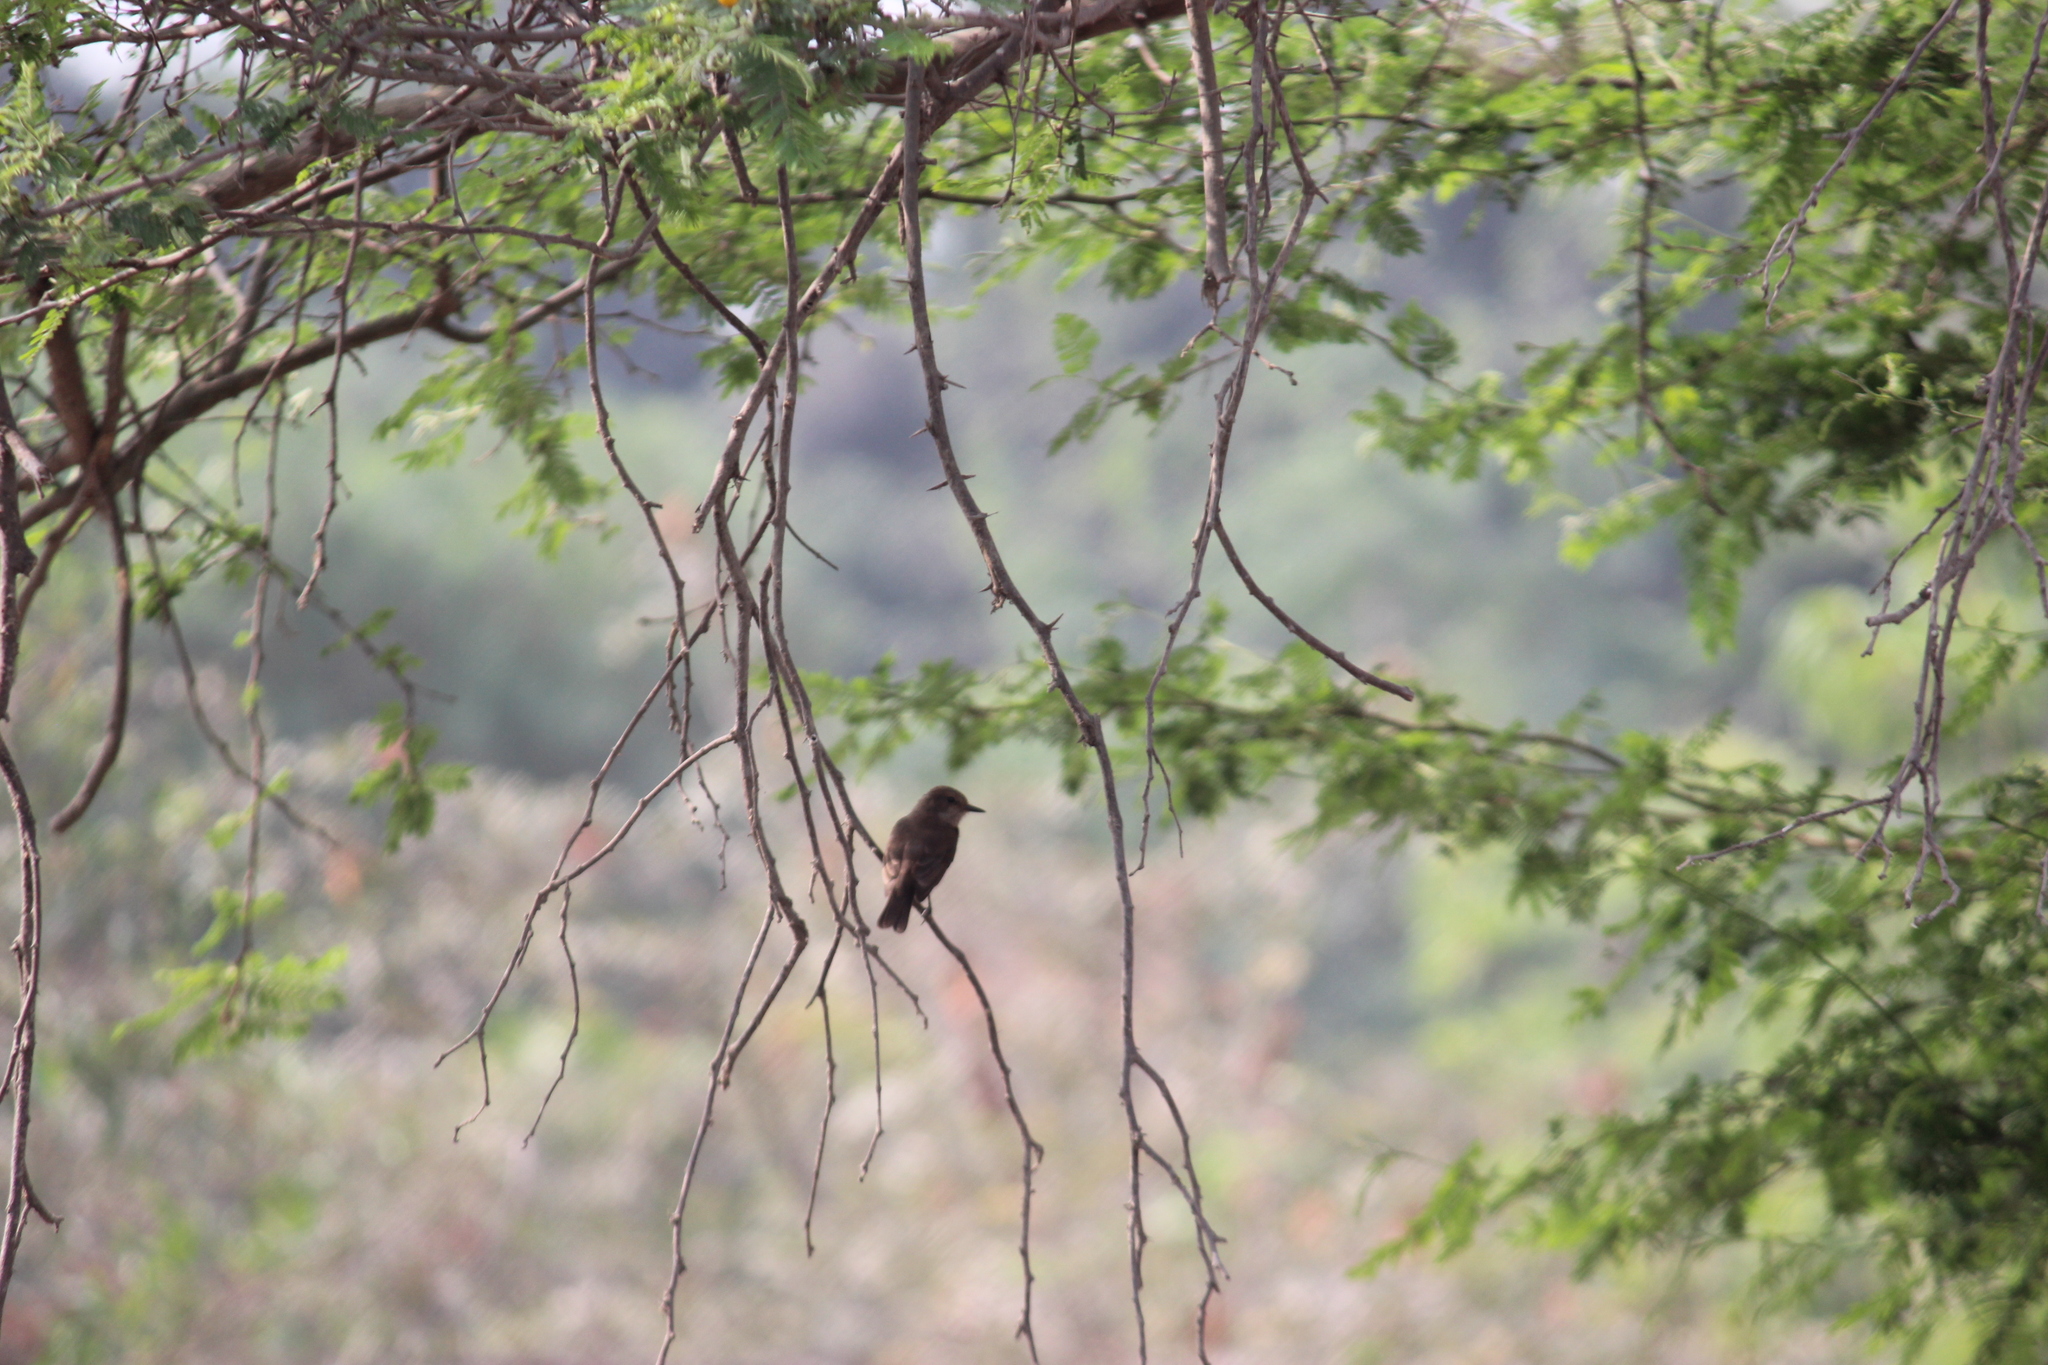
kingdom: Animalia
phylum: Chordata
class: Aves
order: Passeriformes
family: Tyrannidae
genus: Pyrocephalus
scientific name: Pyrocephalus rubinus
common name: Vermilion flycatcher
